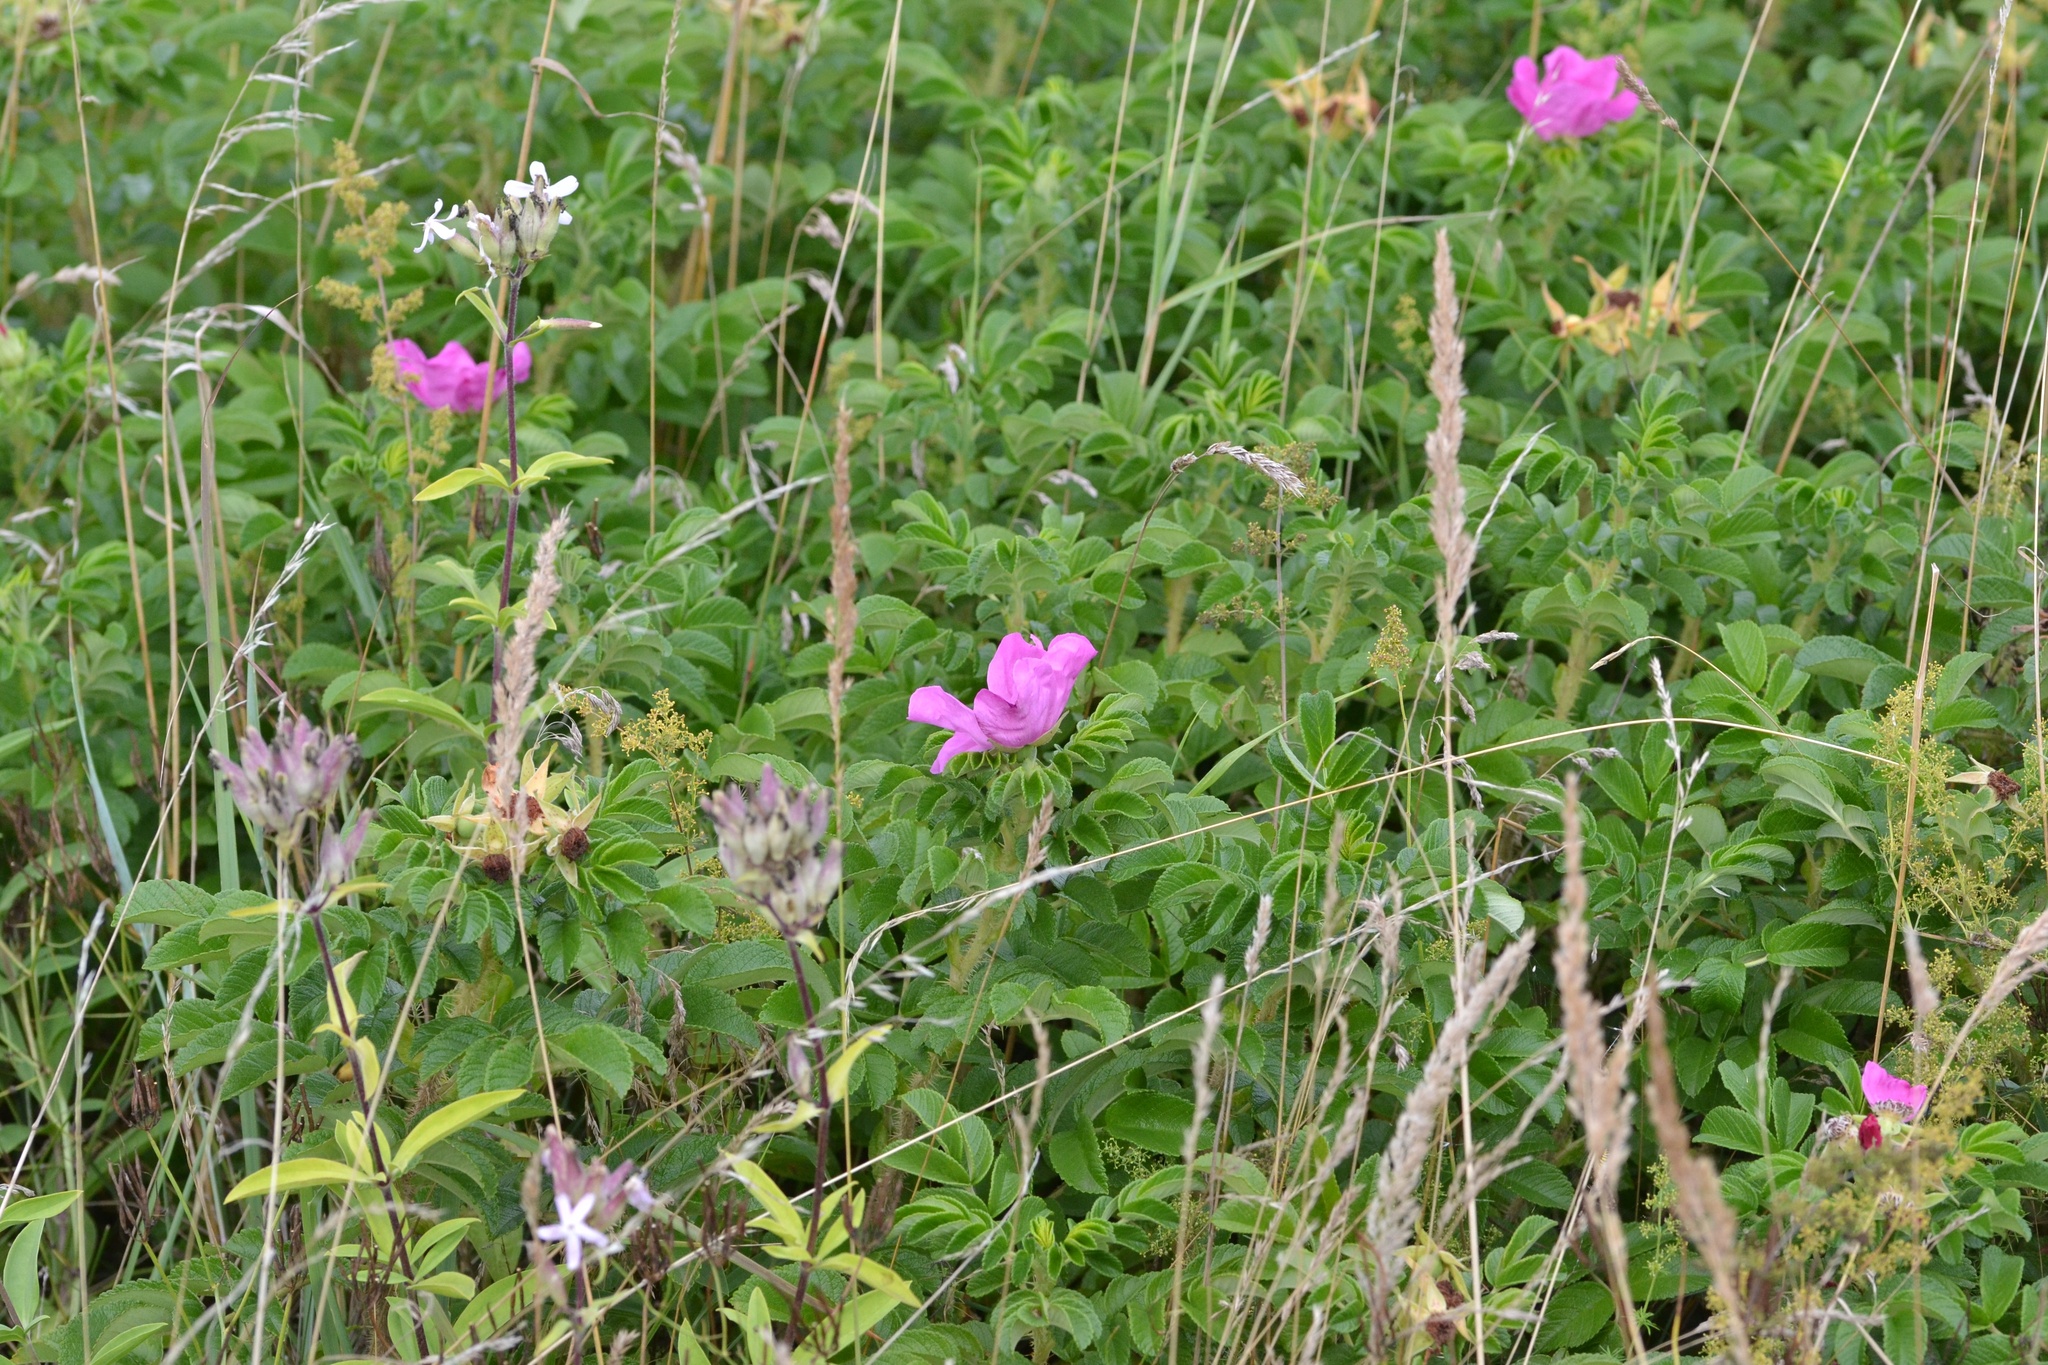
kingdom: Plantae
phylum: Tracheophyta
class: Magnoliopsida
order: Rosales
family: Rosaceae
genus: Rosa
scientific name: Rosa rugosa
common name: Japanese rose
